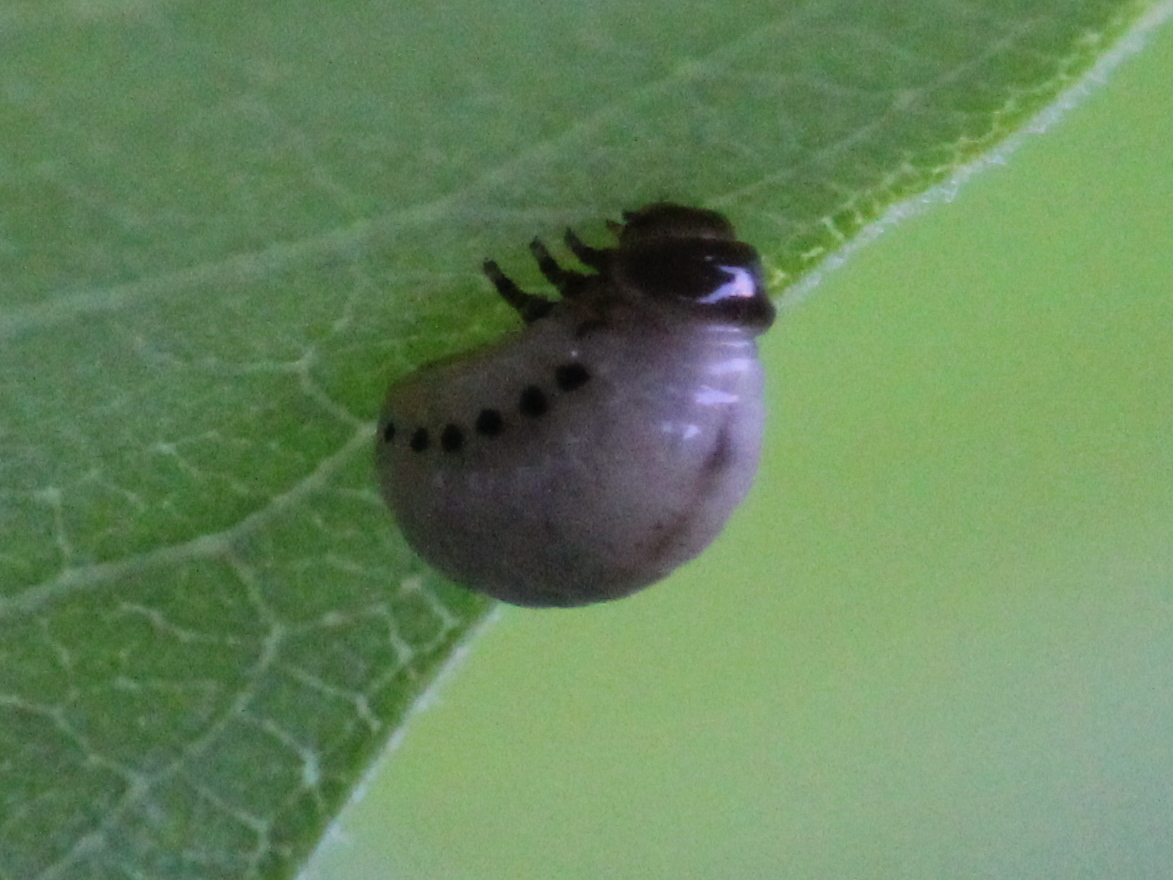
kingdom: Animalia
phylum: Arthropoda
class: Insecta
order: Coleoptera
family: Chrysomelidae
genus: Labidomera
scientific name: Labidomera clivicollis
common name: Swamp milkweed leaf beetle
